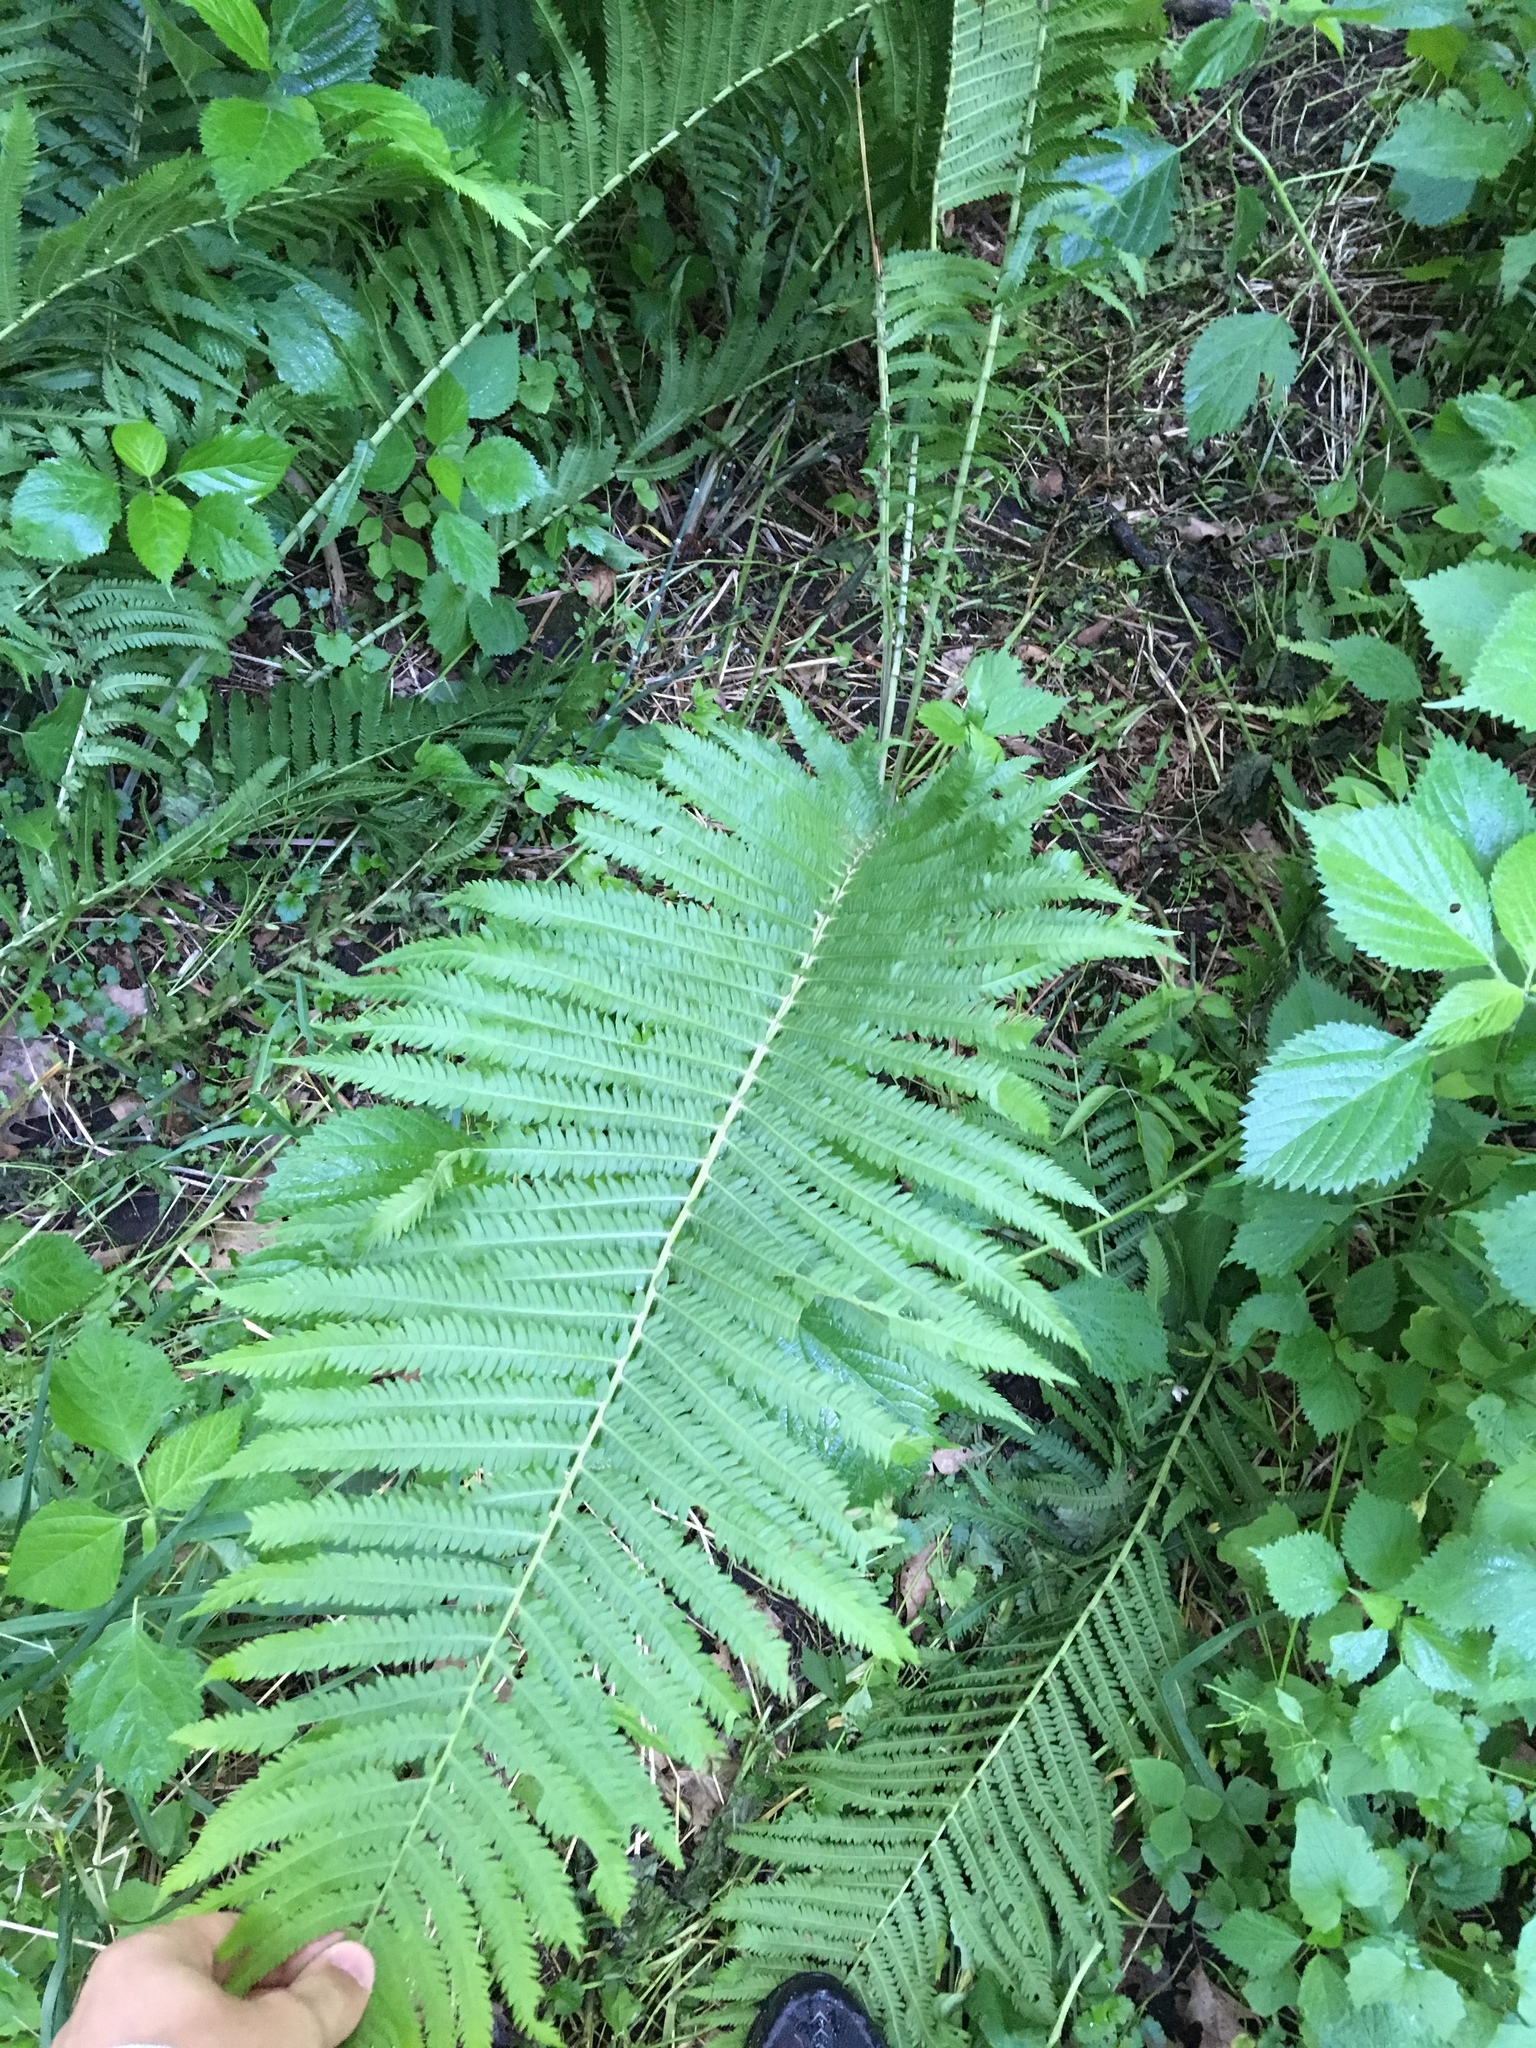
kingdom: Plantae
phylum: Tracheophyta
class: Polypodiopsida
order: Polypodiales
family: Onocleaceae
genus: Matteuccia
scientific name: Matteuccia struthiopteris
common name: Ostrich fern
